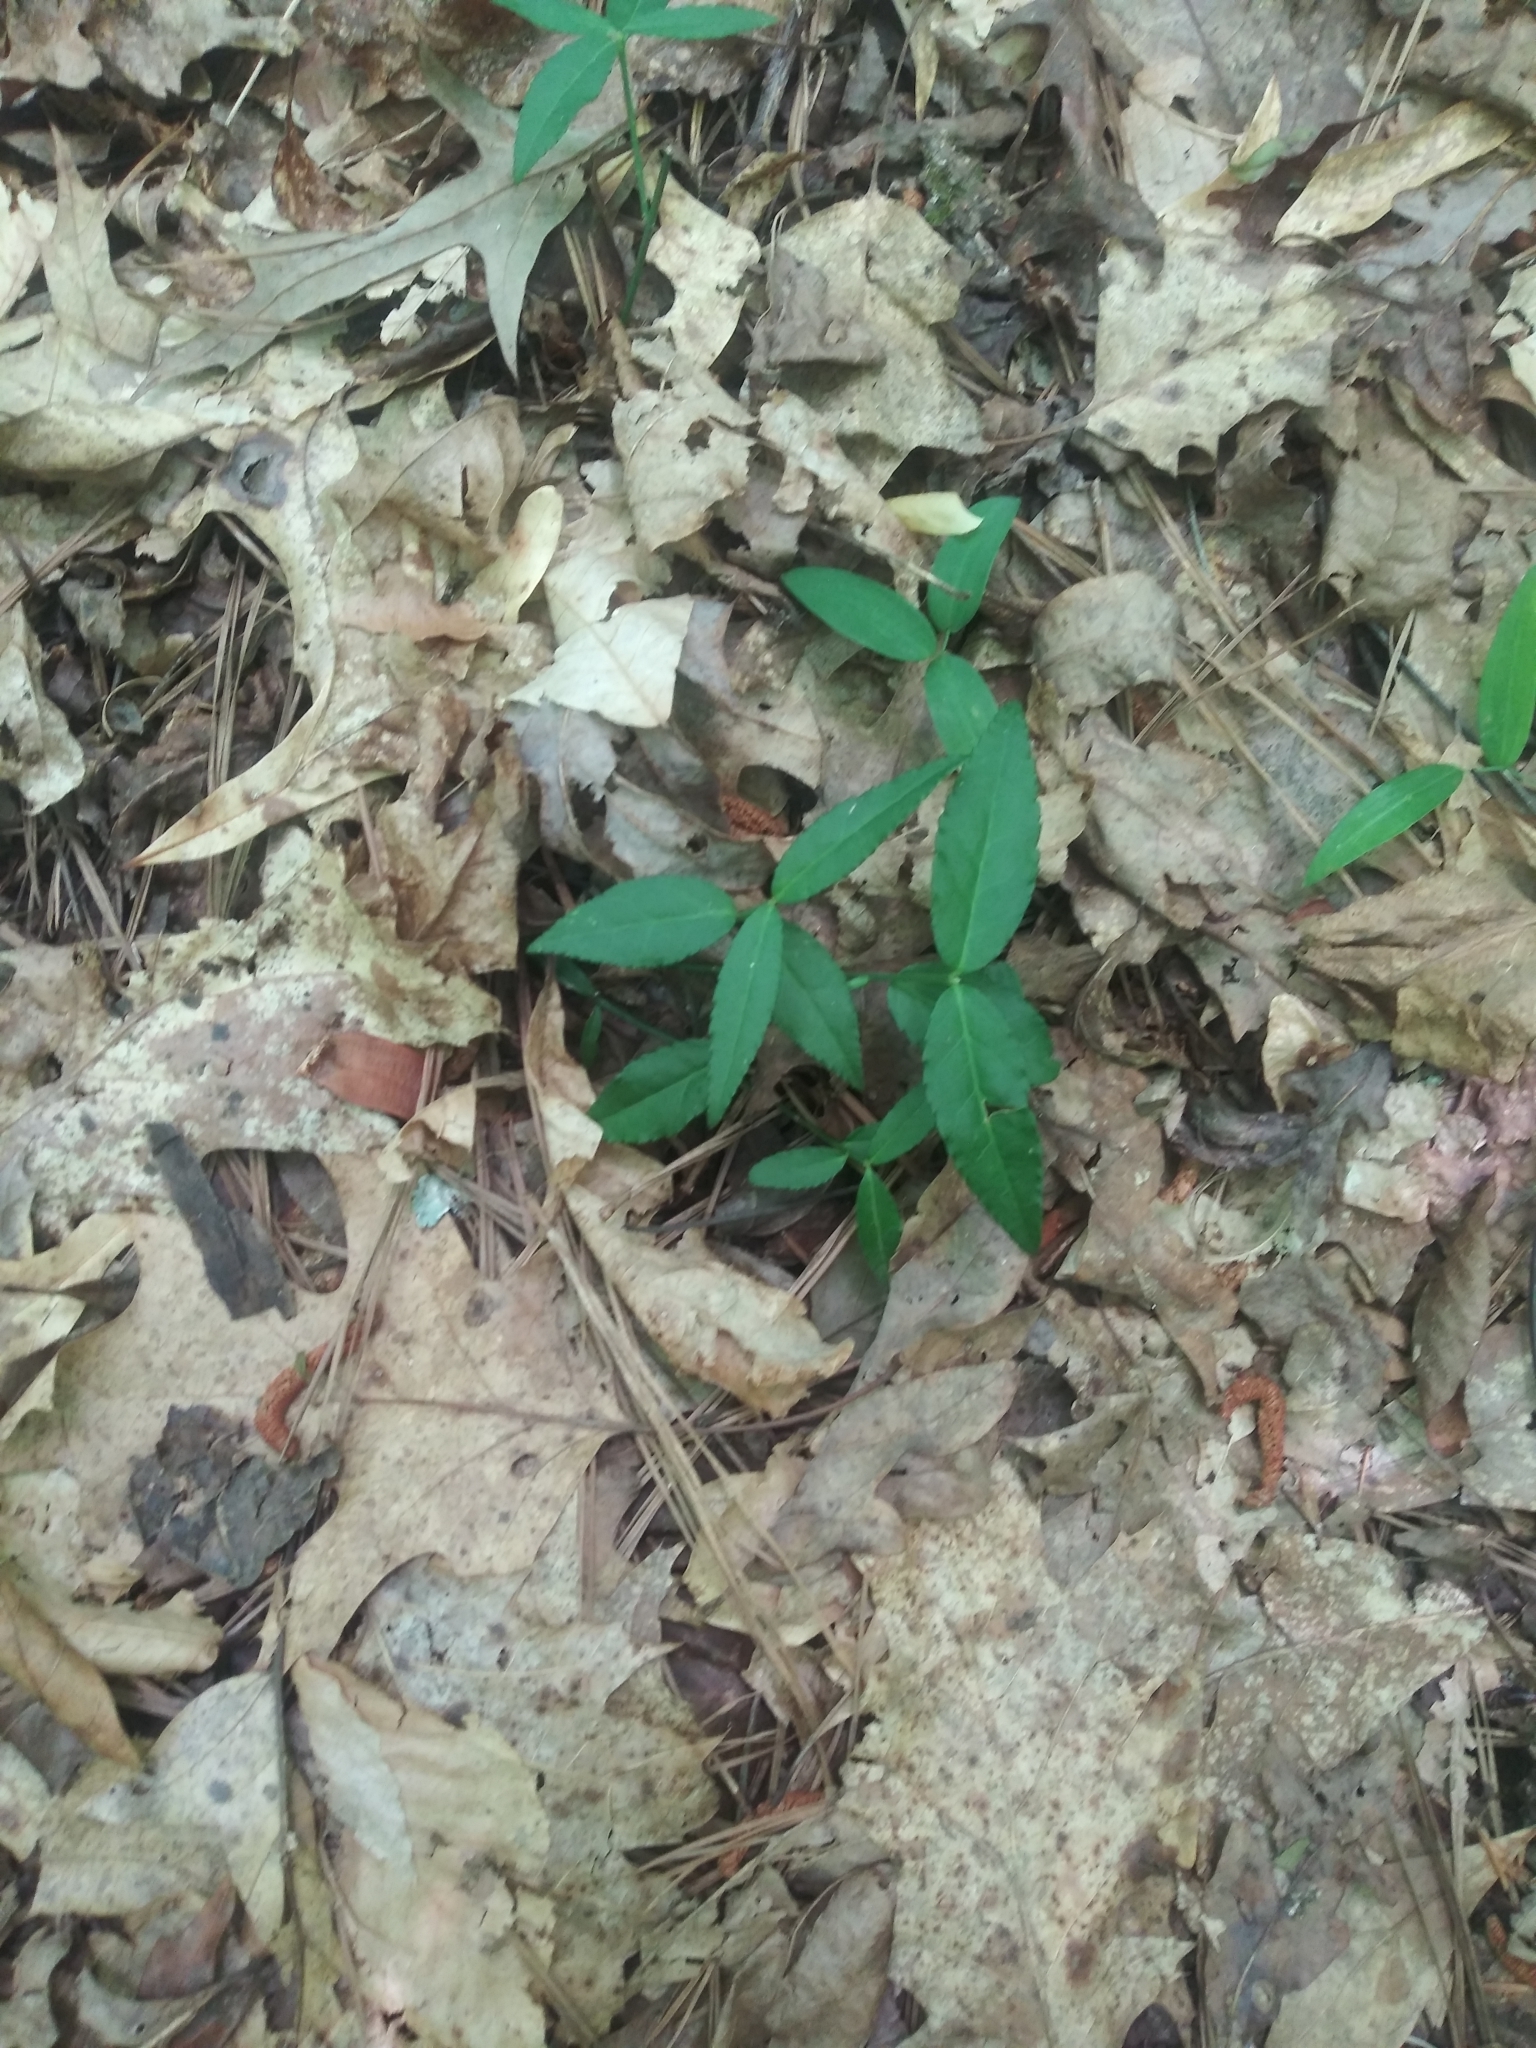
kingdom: Plantae
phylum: Tracheophyta
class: Magnoliopsida
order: Celastrales
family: Celastraceae
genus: Euonymus
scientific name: Euonymus americanus
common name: Bursting-heart
